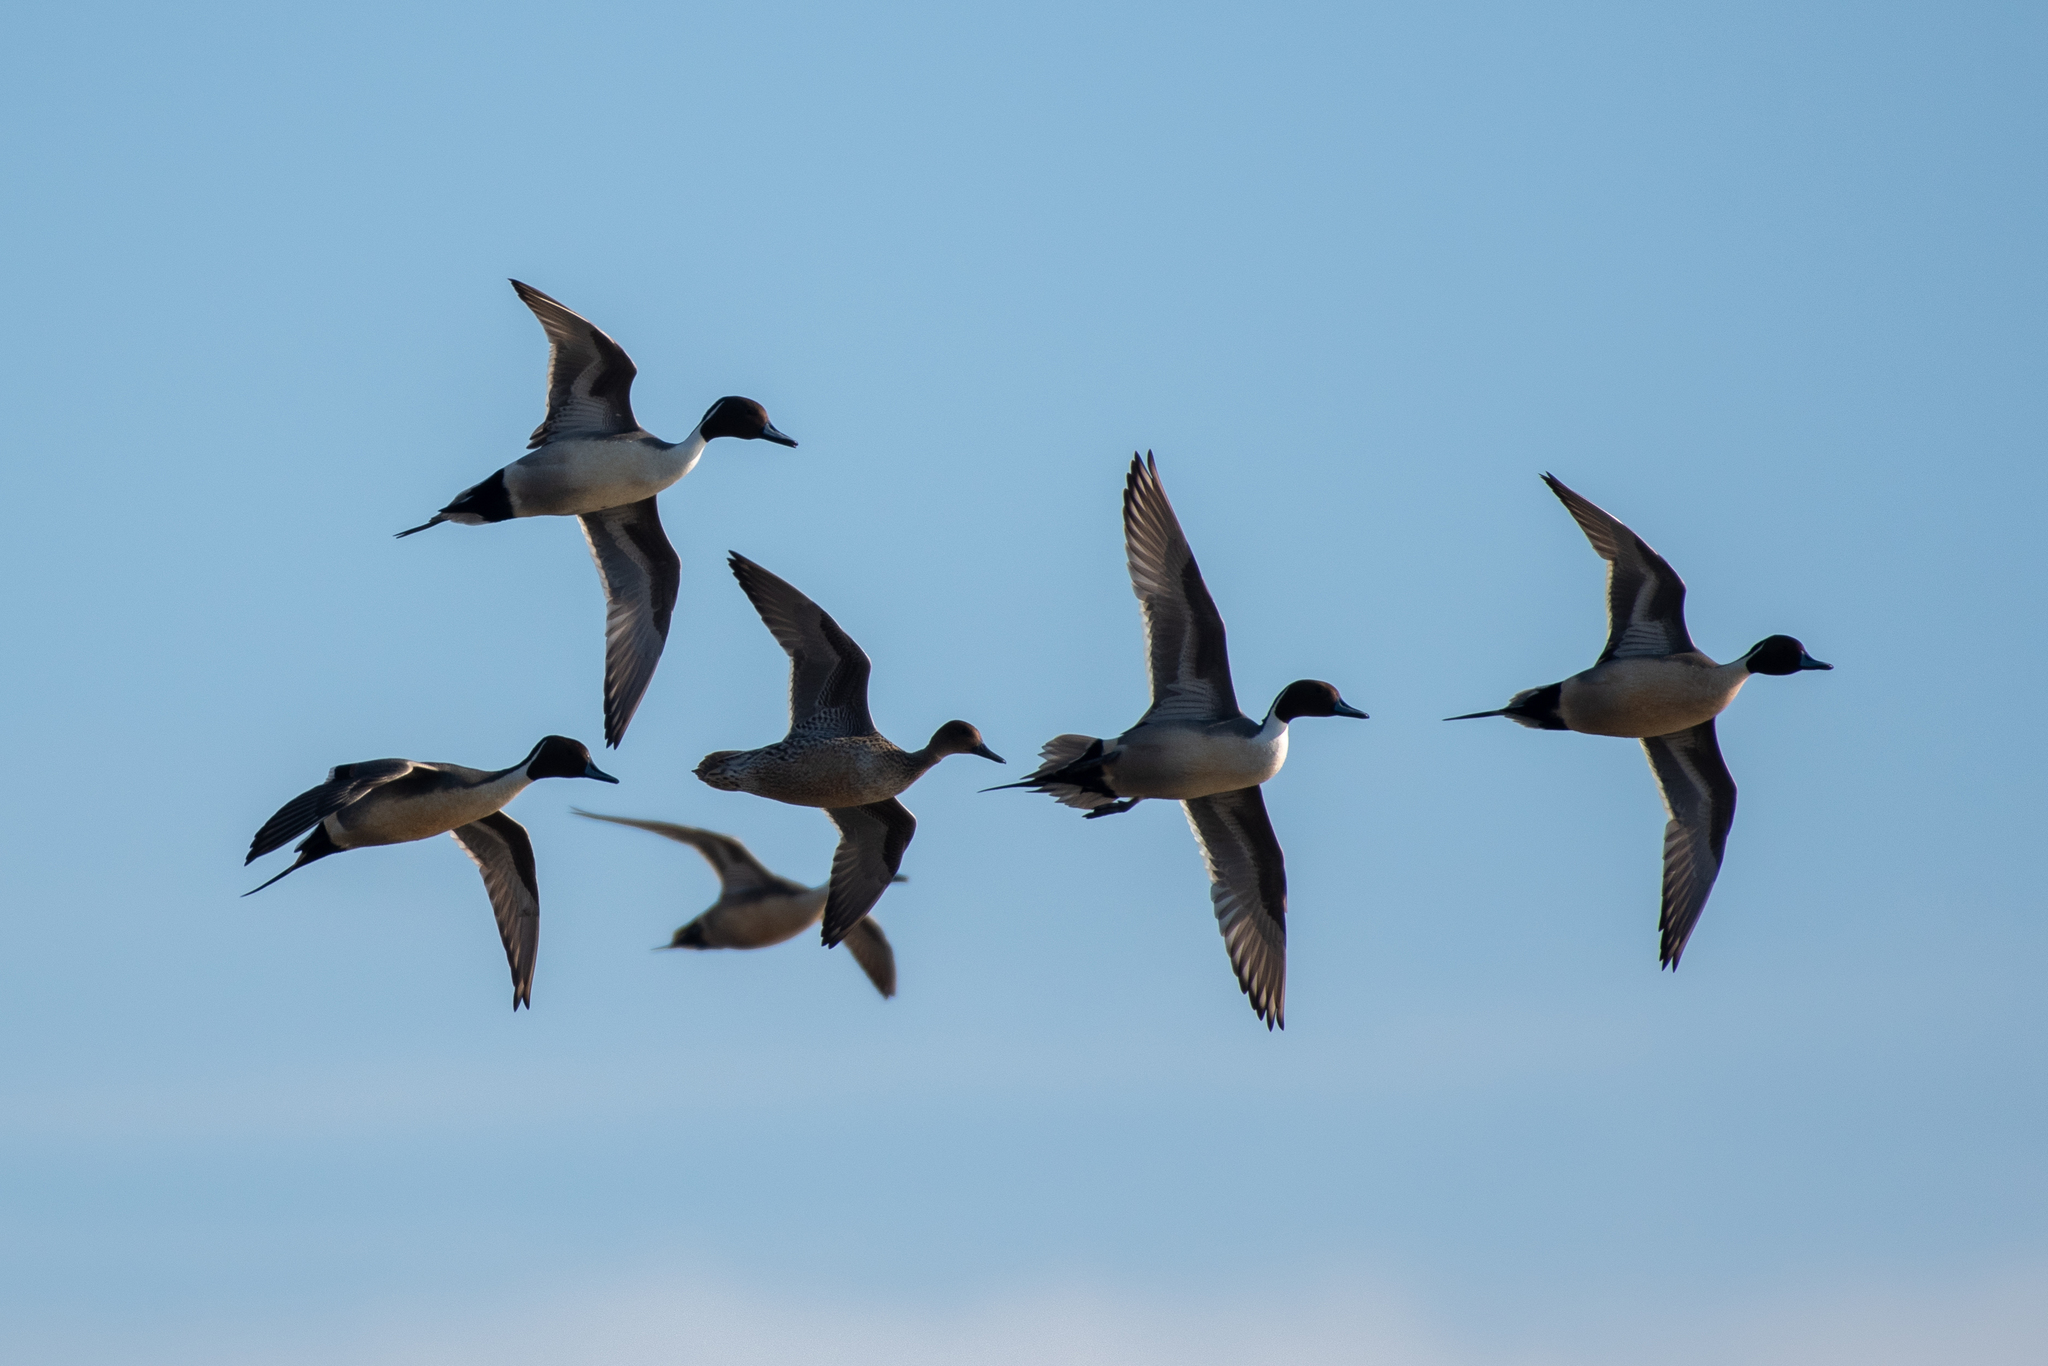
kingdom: Animalia
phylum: Chordata
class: Aves
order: Anseriformes
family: Anatidae
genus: Anas
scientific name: Anas acuta
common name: Northern pintail
